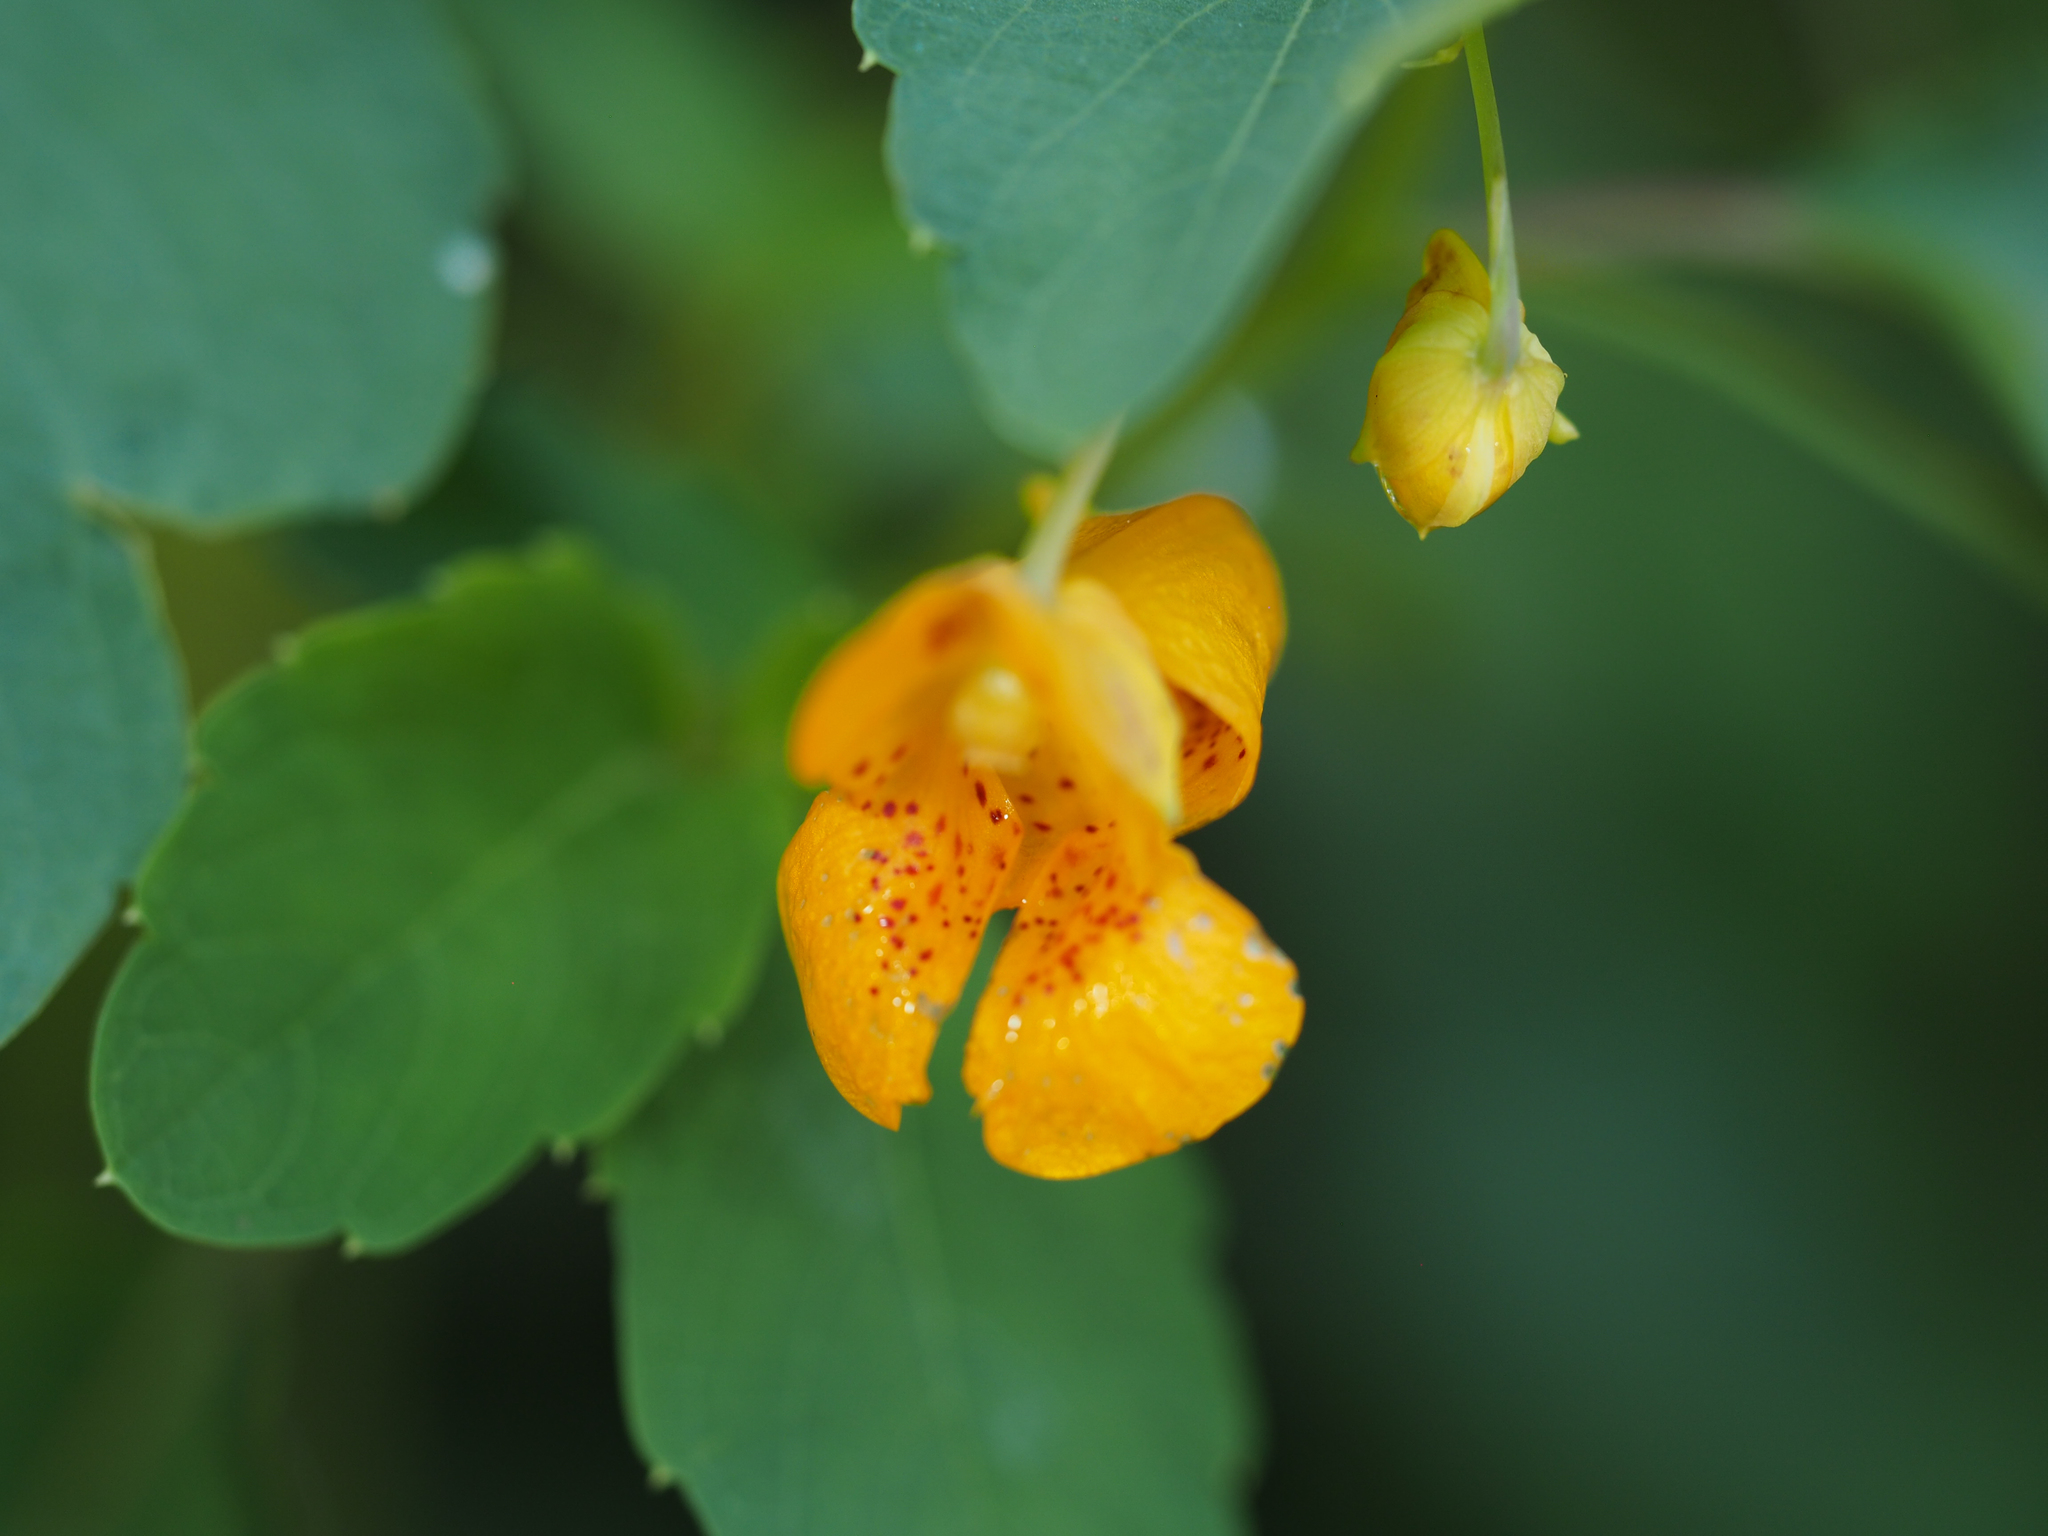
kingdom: Plantae
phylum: Tracheophyta
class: Magnoliopsida
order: Ericales
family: Balsaminaceae
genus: Impatiens
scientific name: Impatiens capensis
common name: Orange balsam
